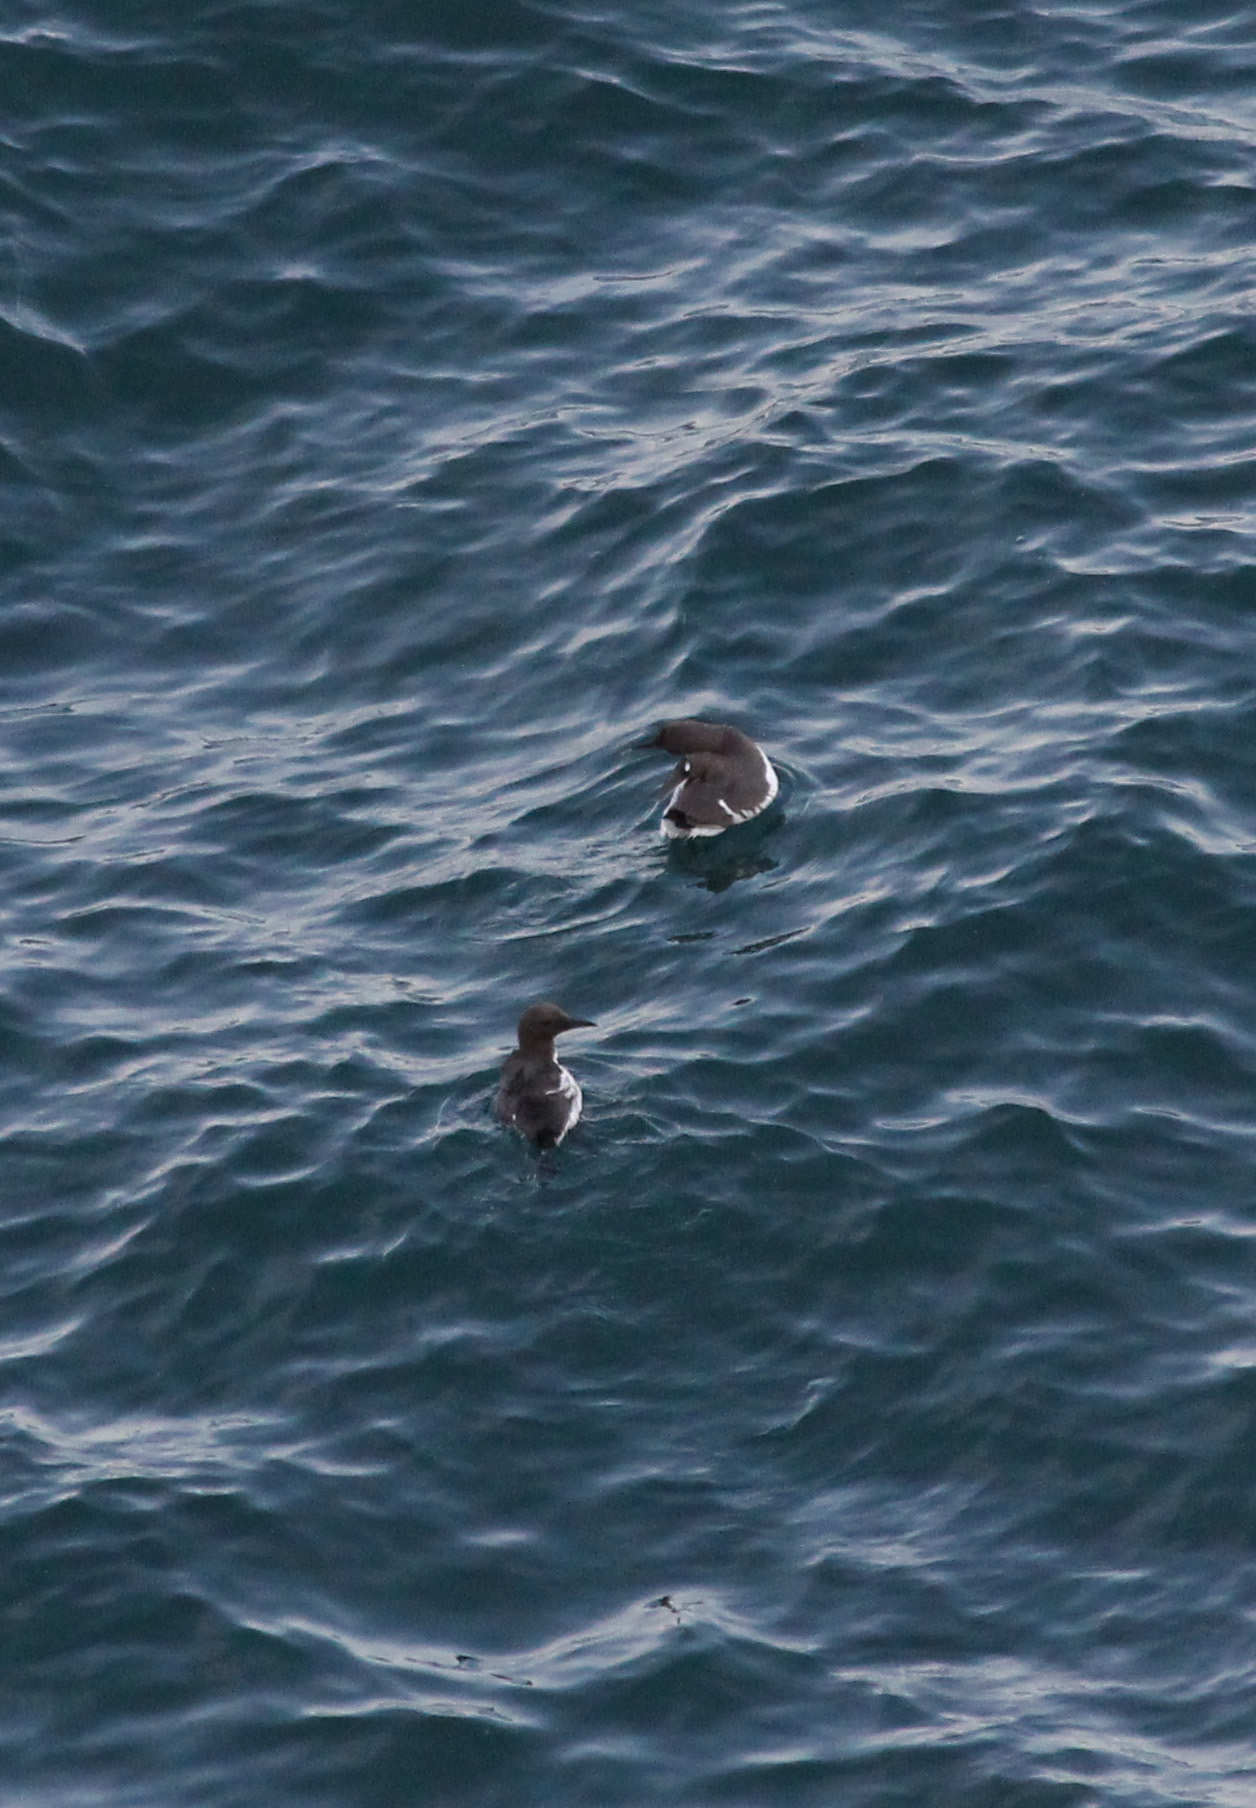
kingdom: Animalia
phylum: Chordata
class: Aves
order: Charadriiformes
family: Alcidae
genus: Uria
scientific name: Uria aalge
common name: Common murre
